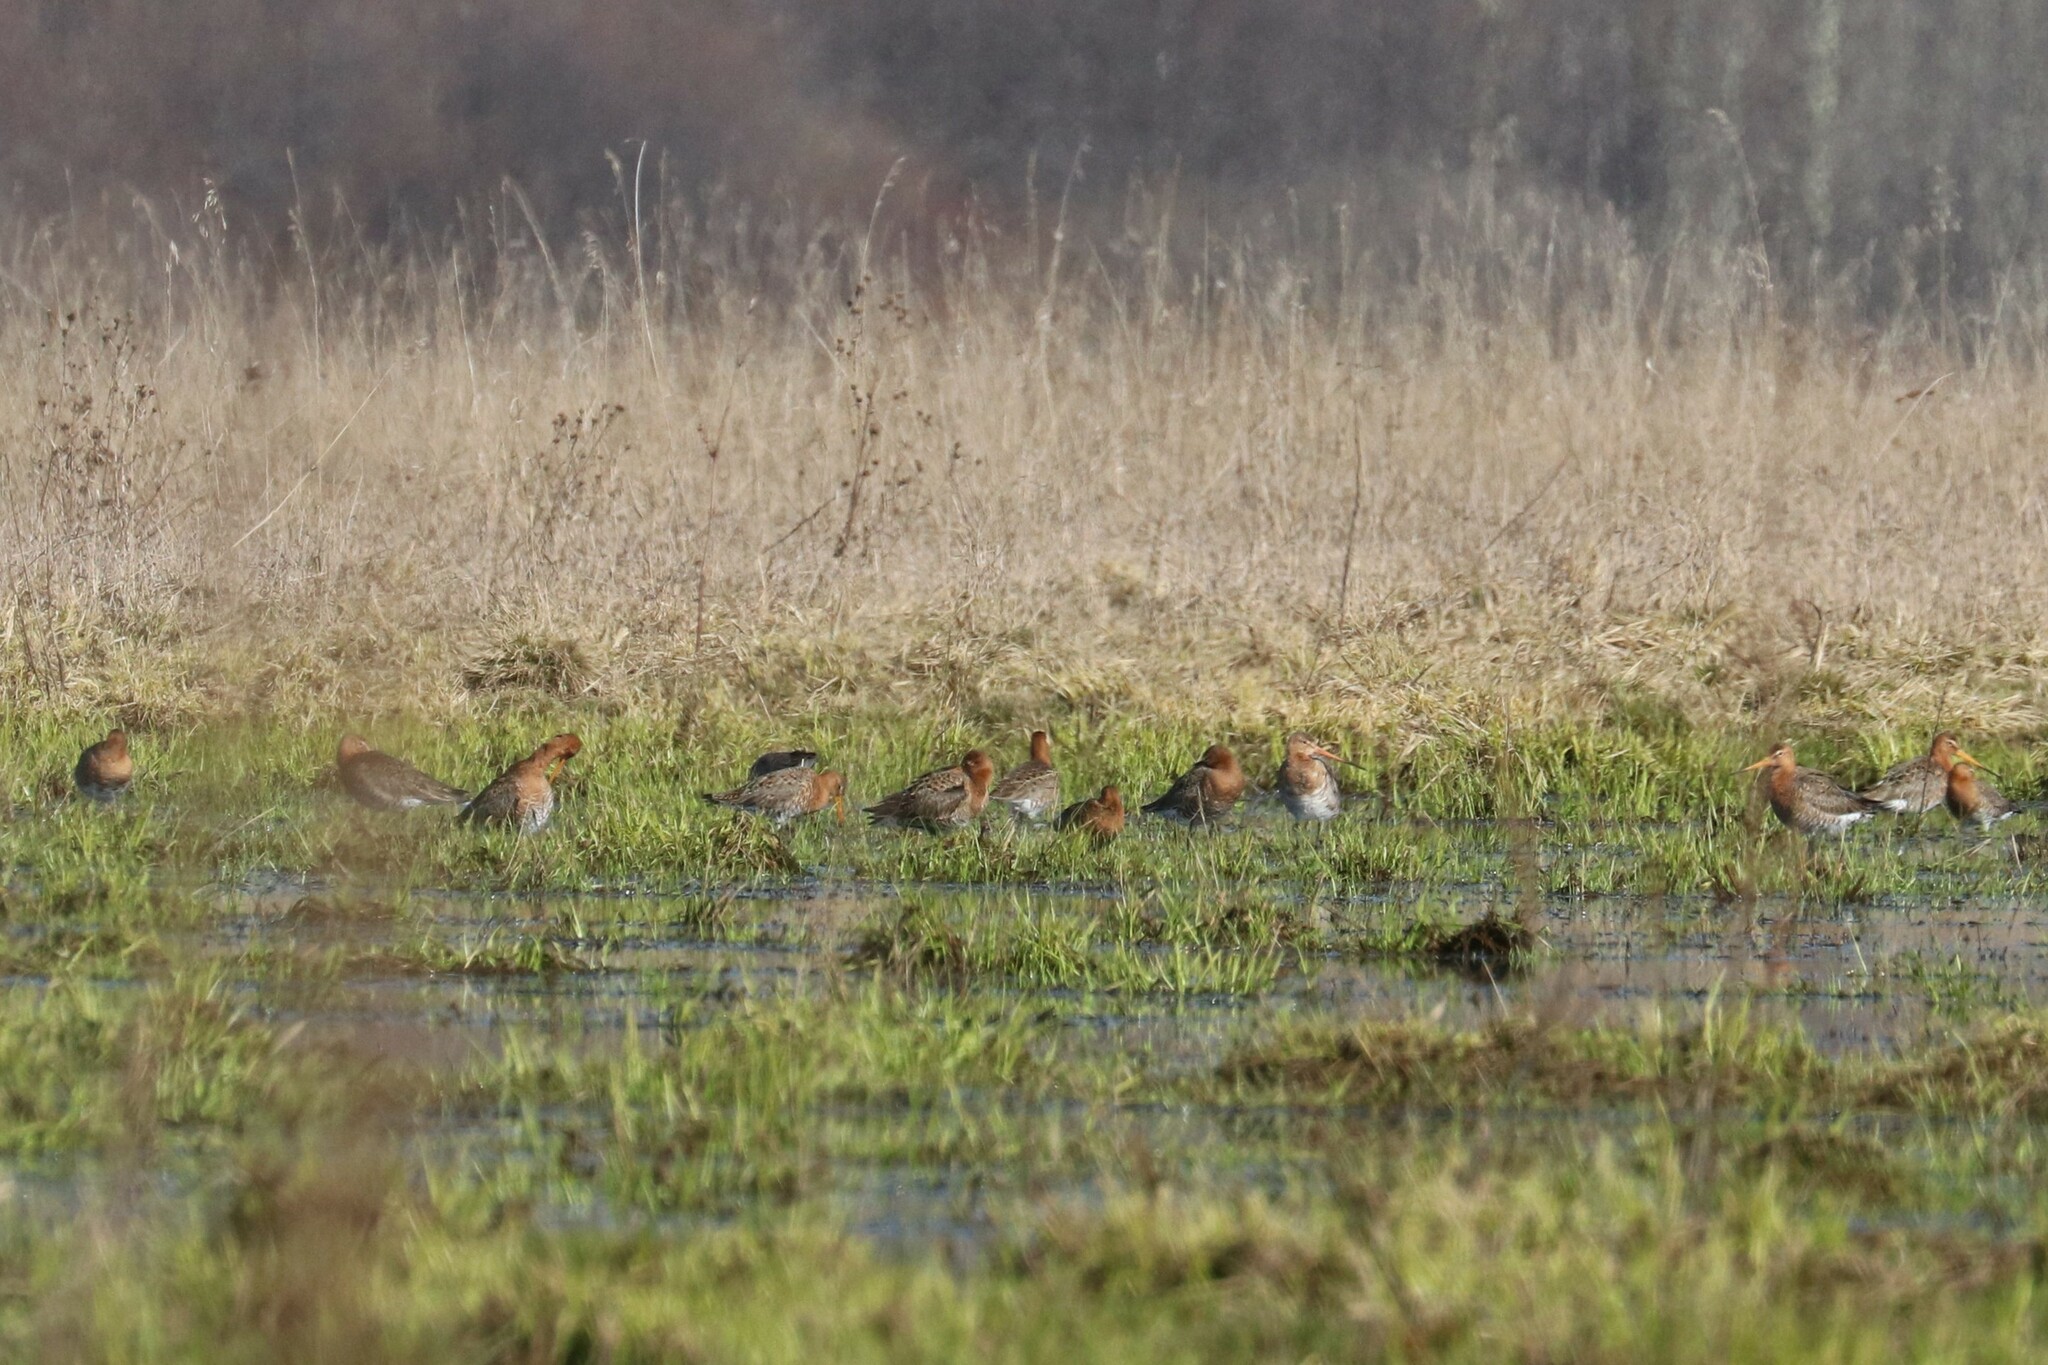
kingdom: Animalia
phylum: Chordata
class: Aves
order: Charadriiformes
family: Scolopacidae
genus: Limosa
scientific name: Limosa limosa
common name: Black-tailed godwit
